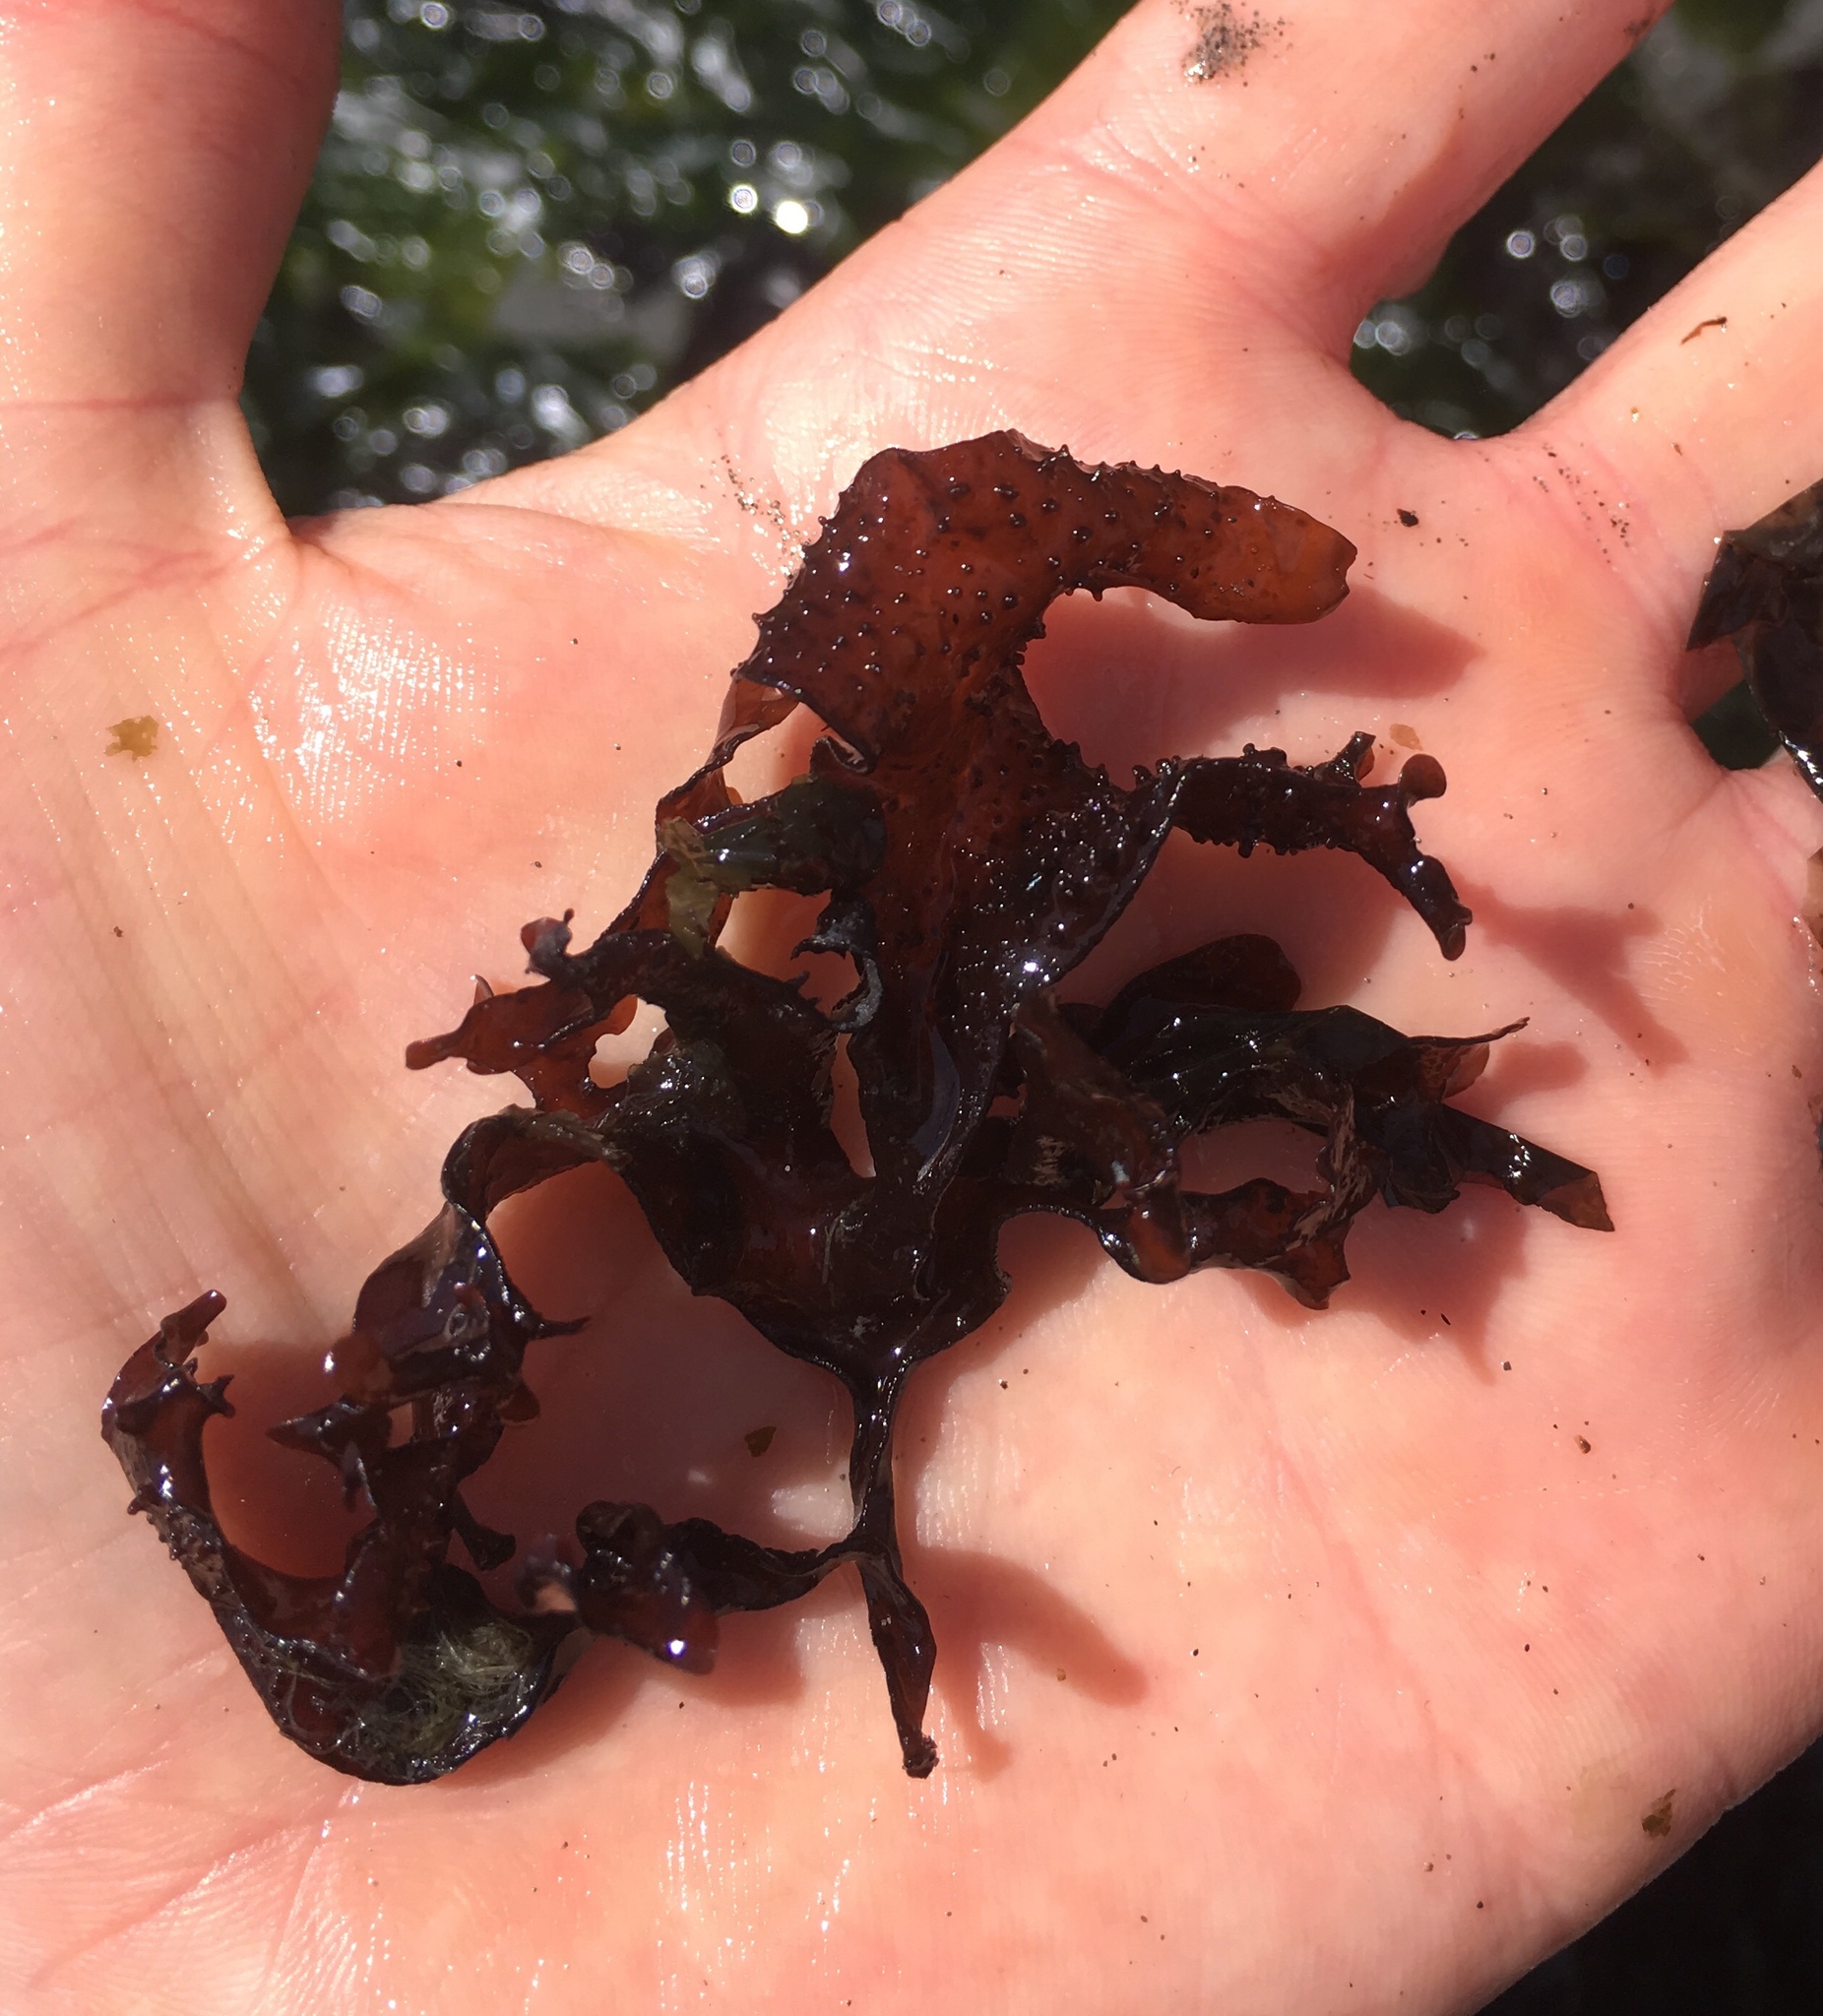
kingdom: Plantae
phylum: Rhodophyta
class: Florideophyceae
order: Gigartinales
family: Phyllophoraceae
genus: Mastocarpus
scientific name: Mastocarpus papillatus
